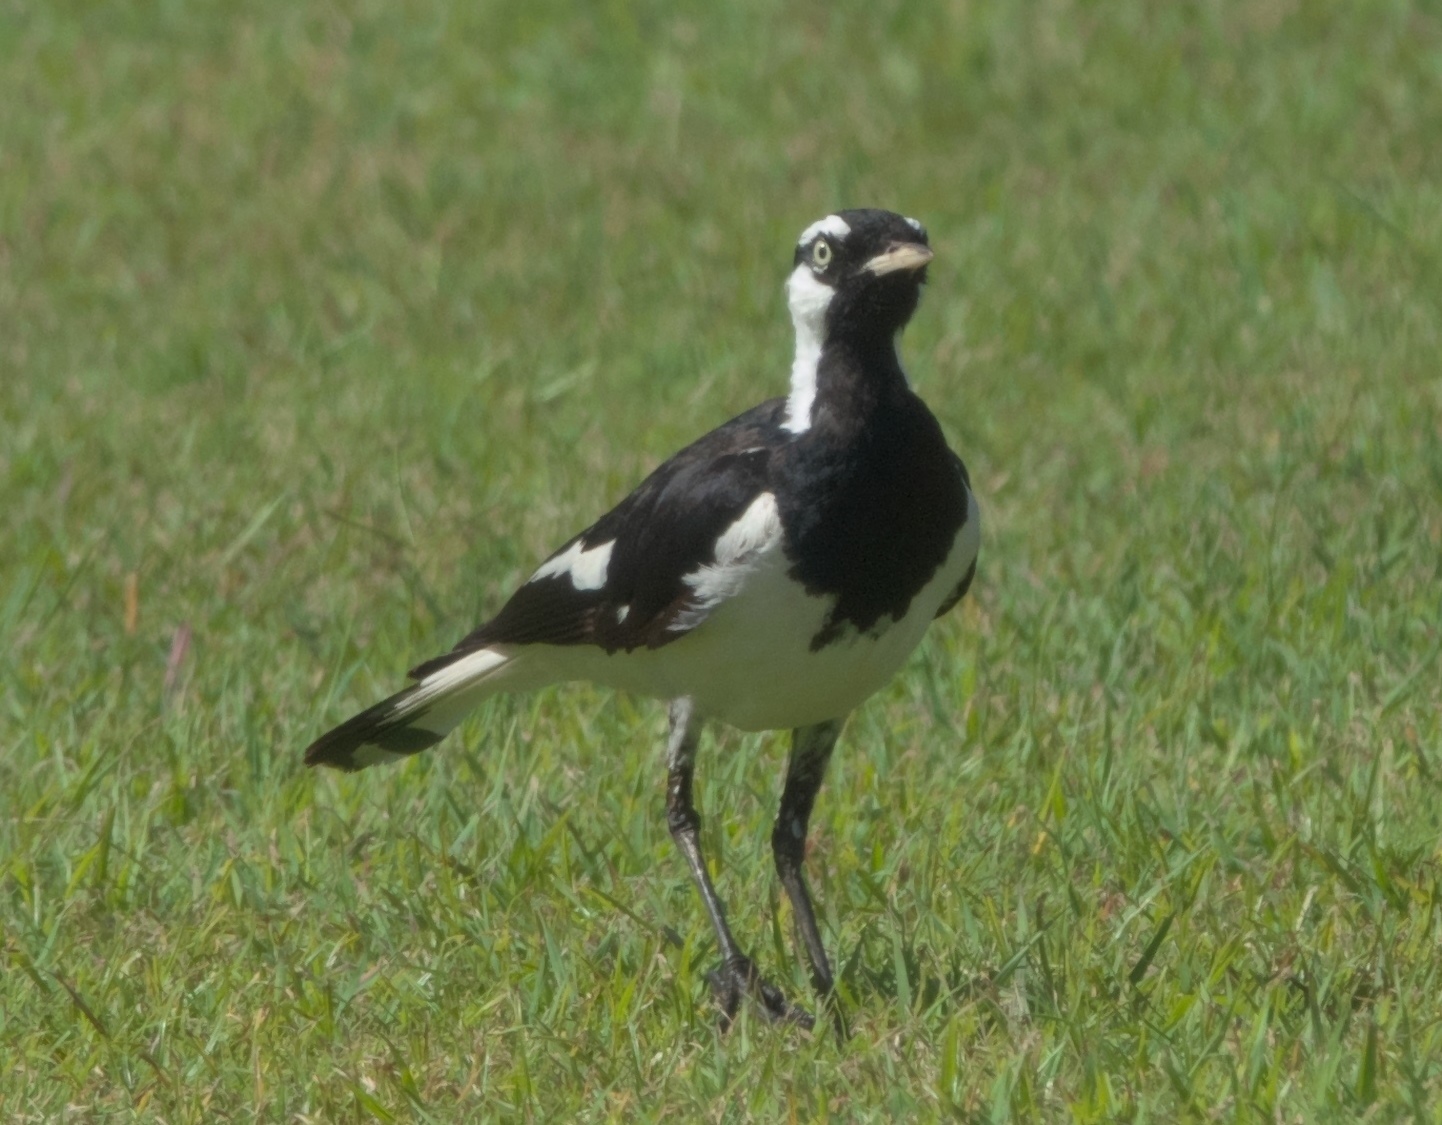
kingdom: Animalia
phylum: Chordata
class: Aves
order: Passeriformes
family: Monarchidae
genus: Grallina
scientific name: Grallina cyanoleuca
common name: Magpie-lark
